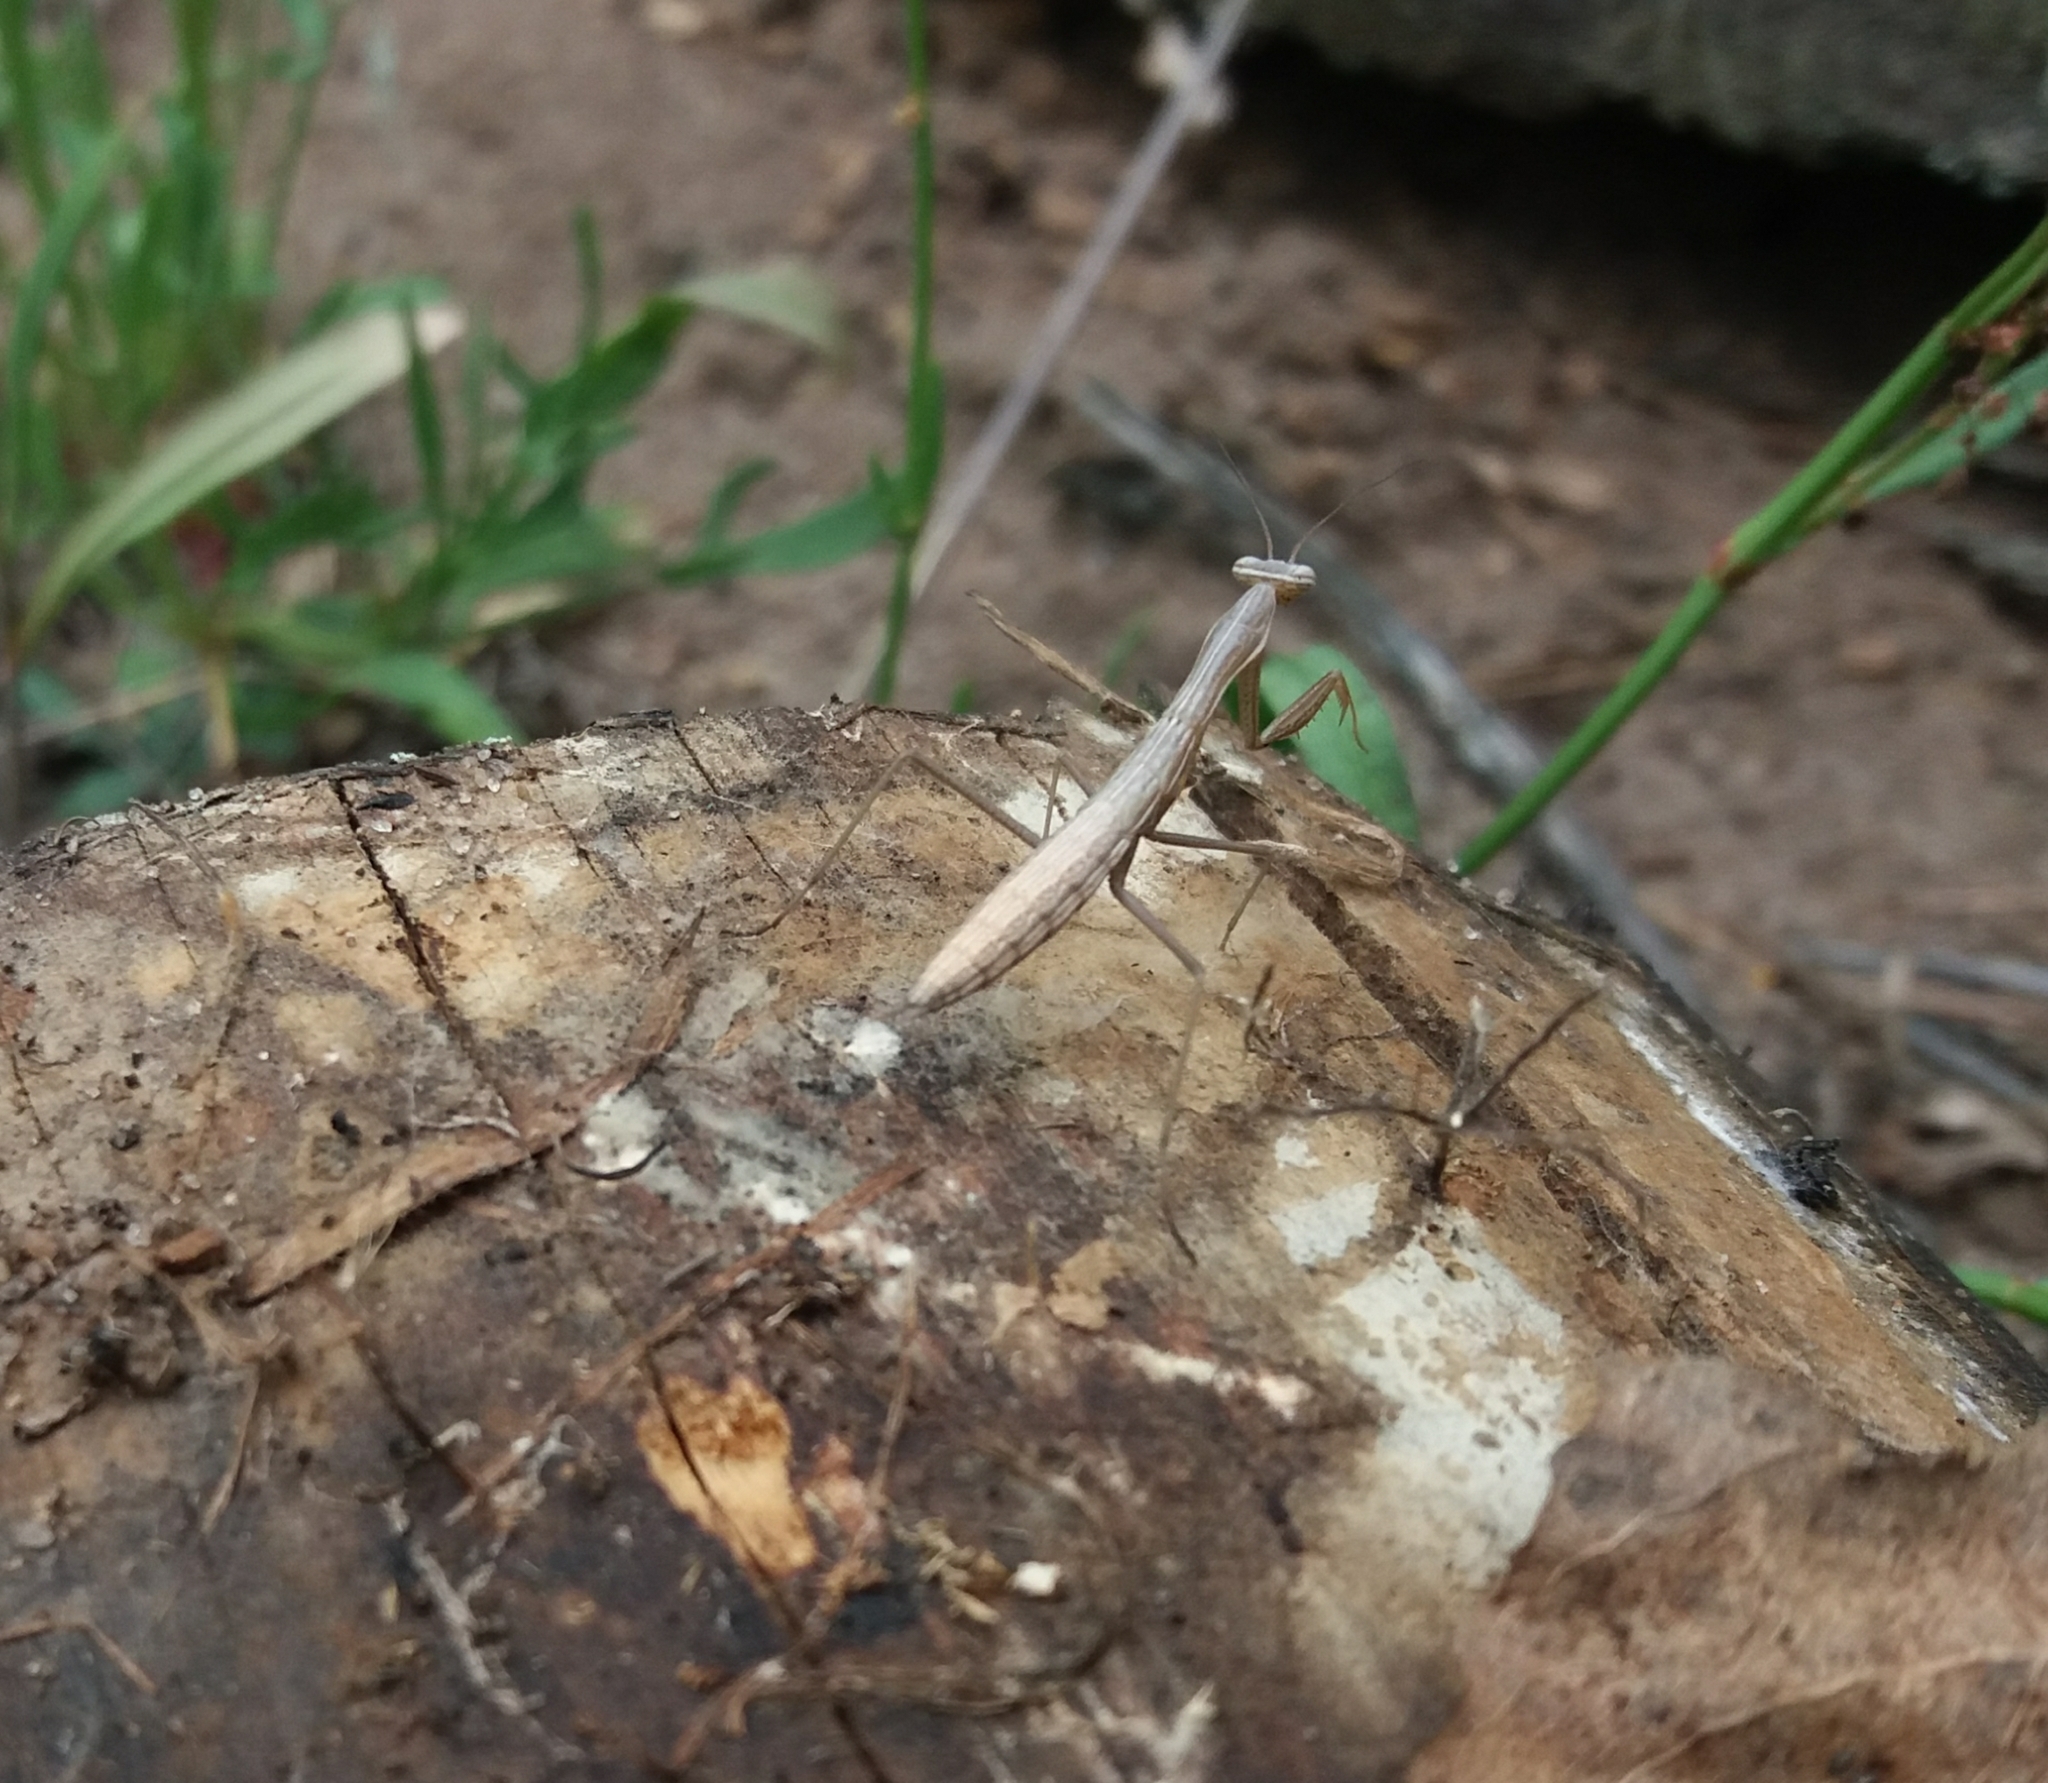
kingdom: Animalia
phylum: Arthropoda
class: Insecta
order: Mantodea
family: Mantidae
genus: Mantis
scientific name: Mantis religiosa
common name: Praying mantis
